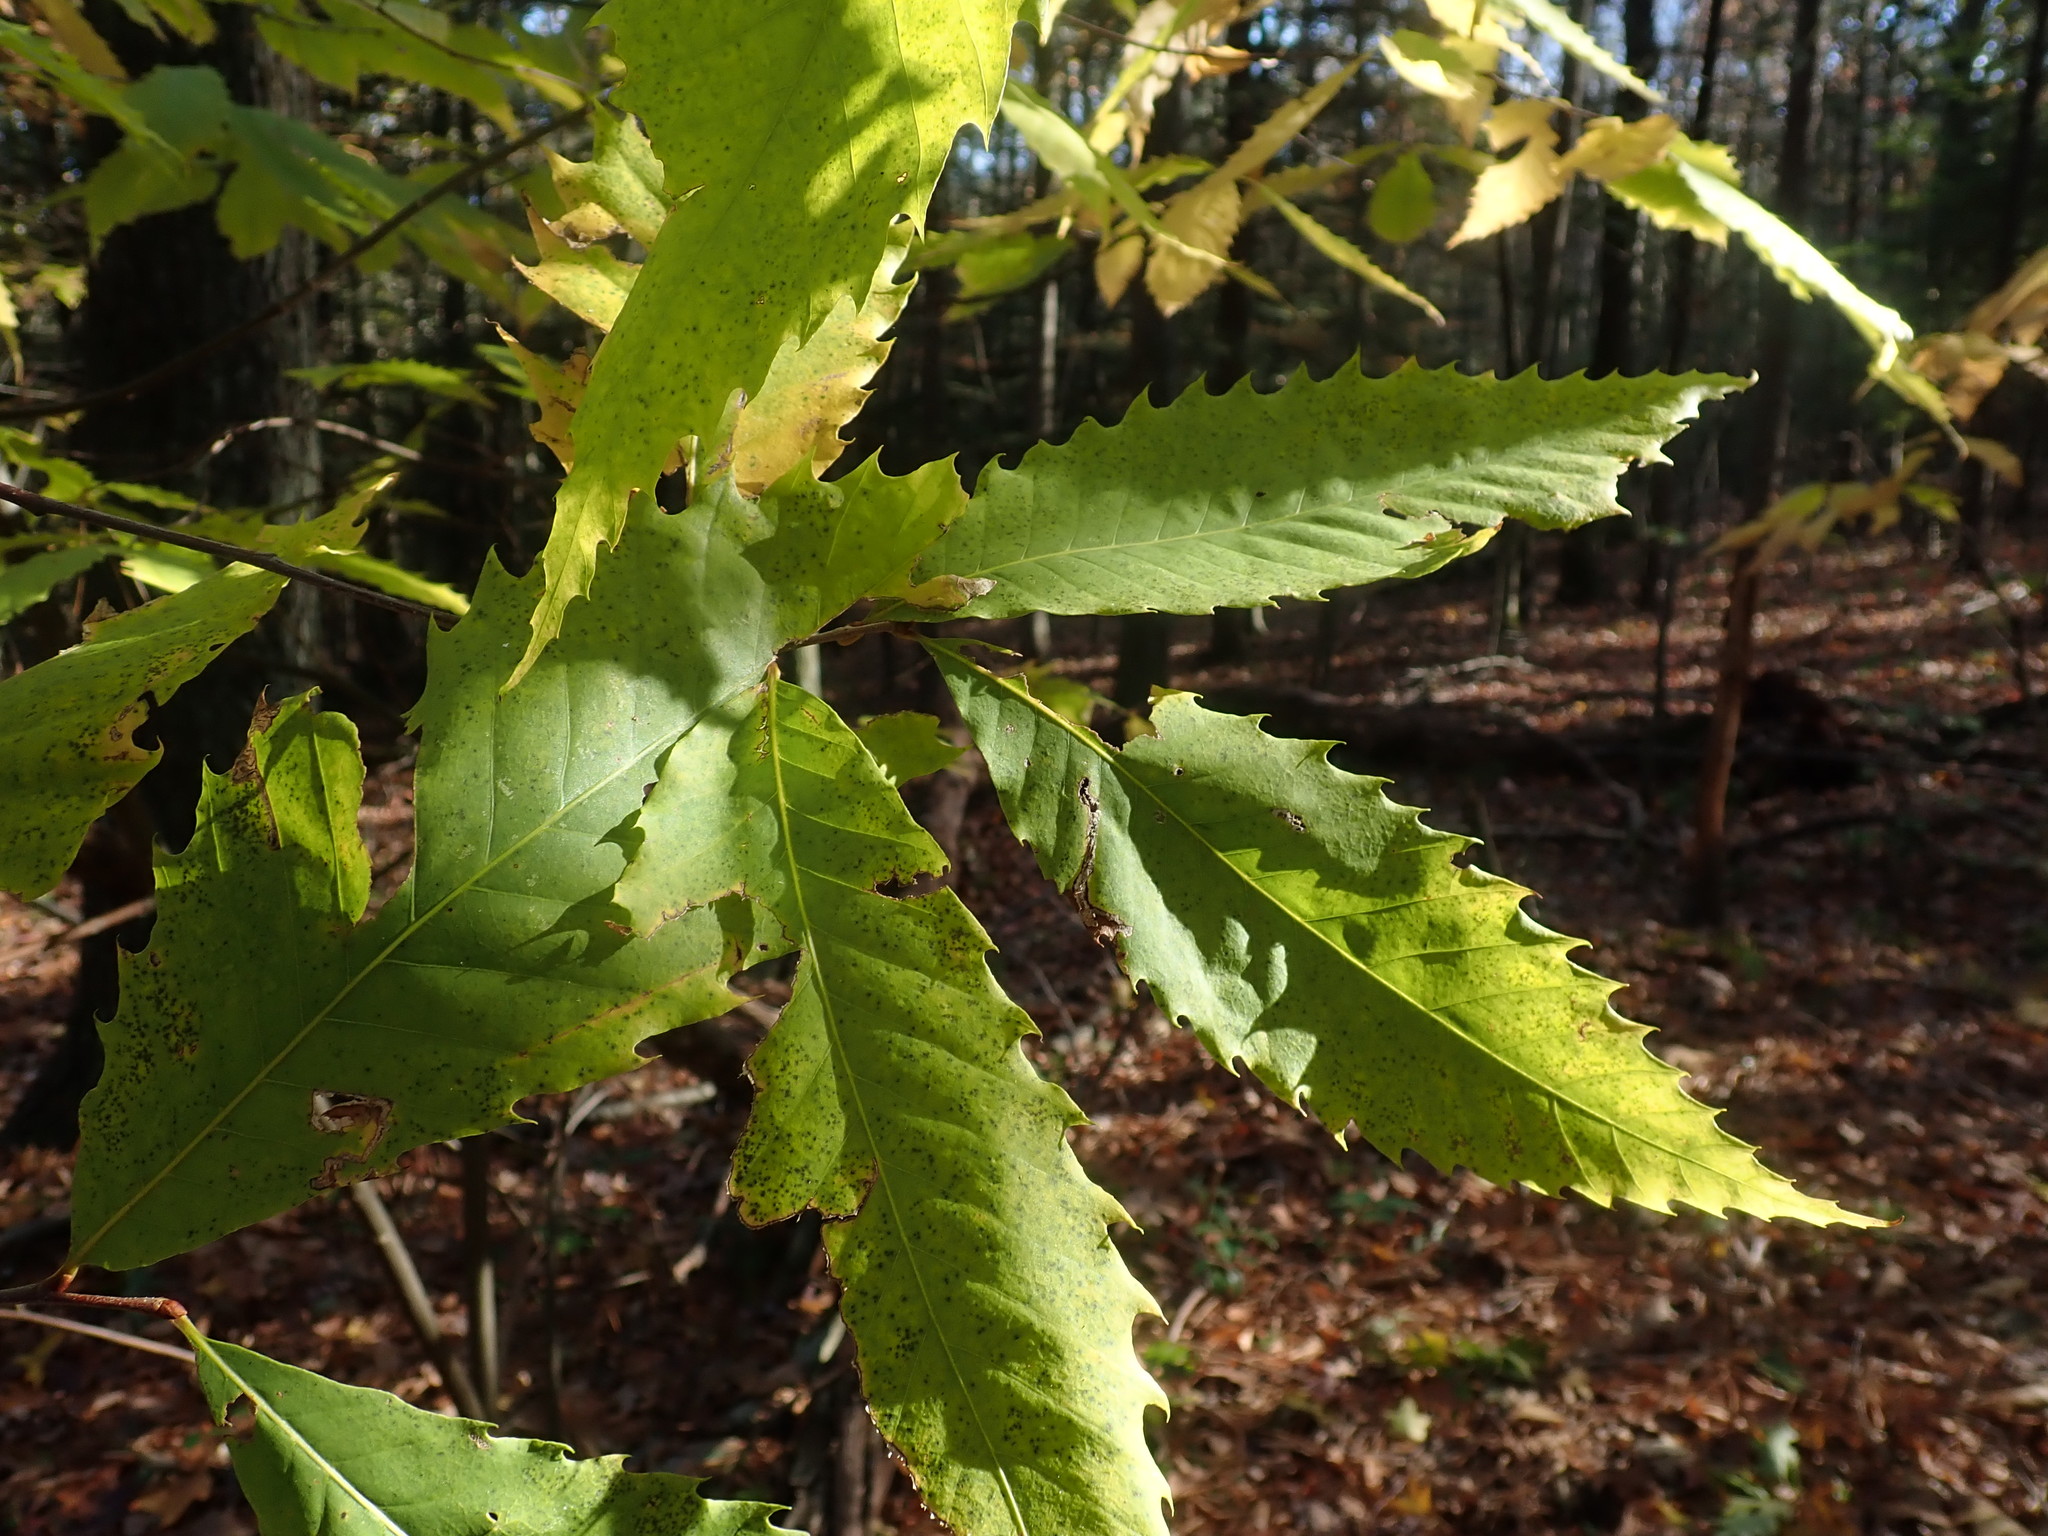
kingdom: Plantae
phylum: Tracheophyta
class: Magnoliopsida
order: Fagales
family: Fagaceae
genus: Castanea
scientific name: Castanea dentata
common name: American chestnut
